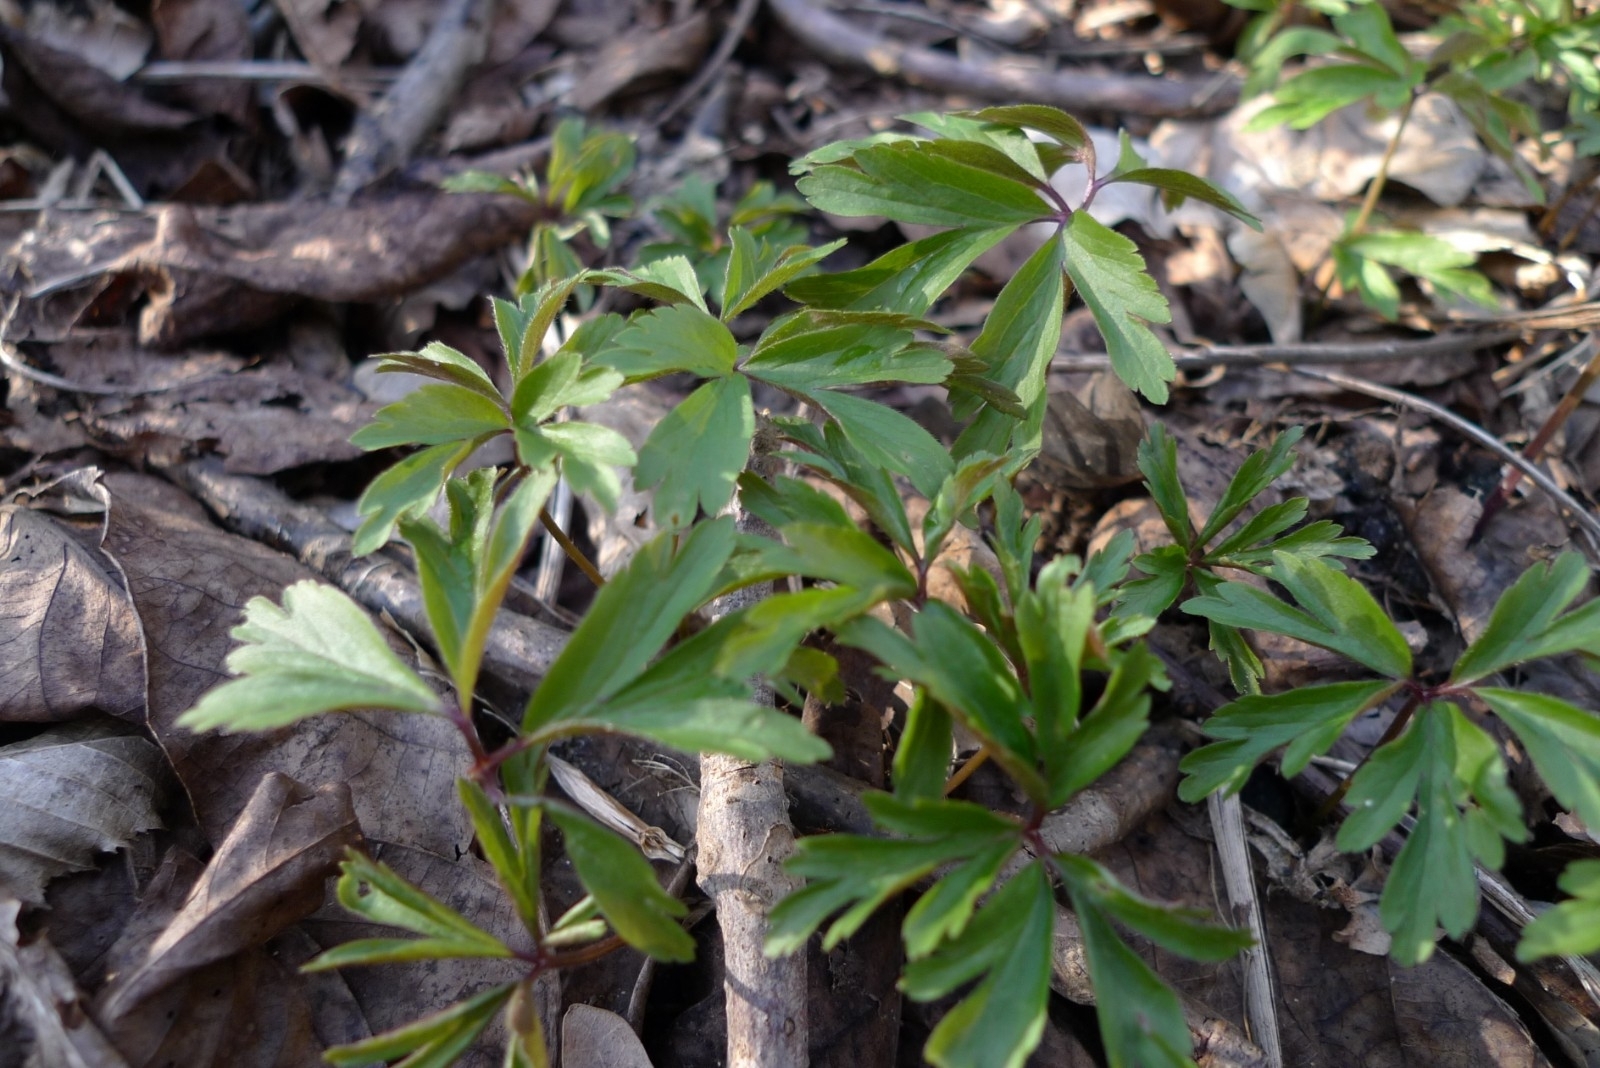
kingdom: Plantae
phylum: Tracheophyta
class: Magnoliopsida
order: Ranunculales
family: Ranunculaceae
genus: Anemone
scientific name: Anemone nemorosa
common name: Wood anemone
